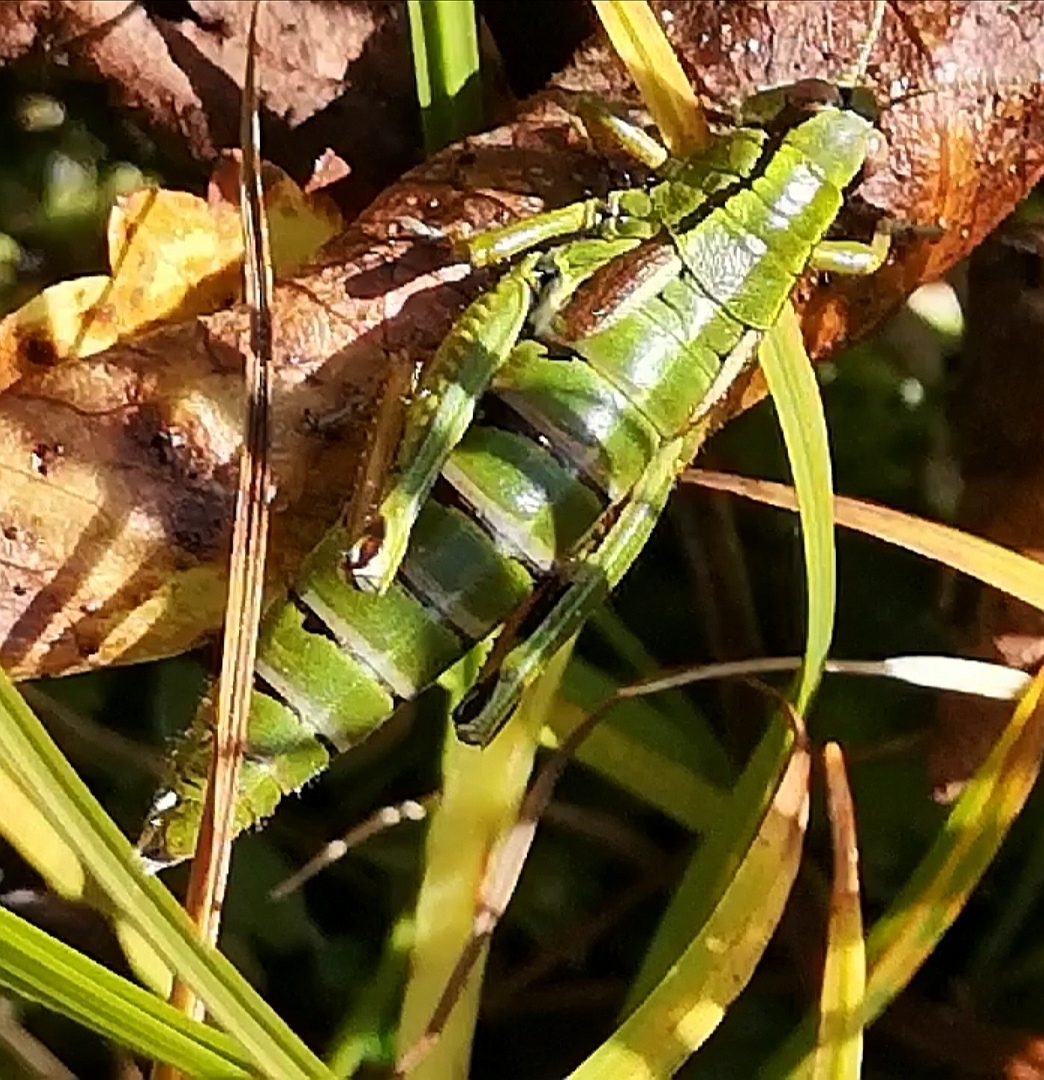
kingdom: Animalia
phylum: Arthropoda
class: Insecta
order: Orthoptera
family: Acrididae
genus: Miramella
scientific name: Miramella carinthiaca
